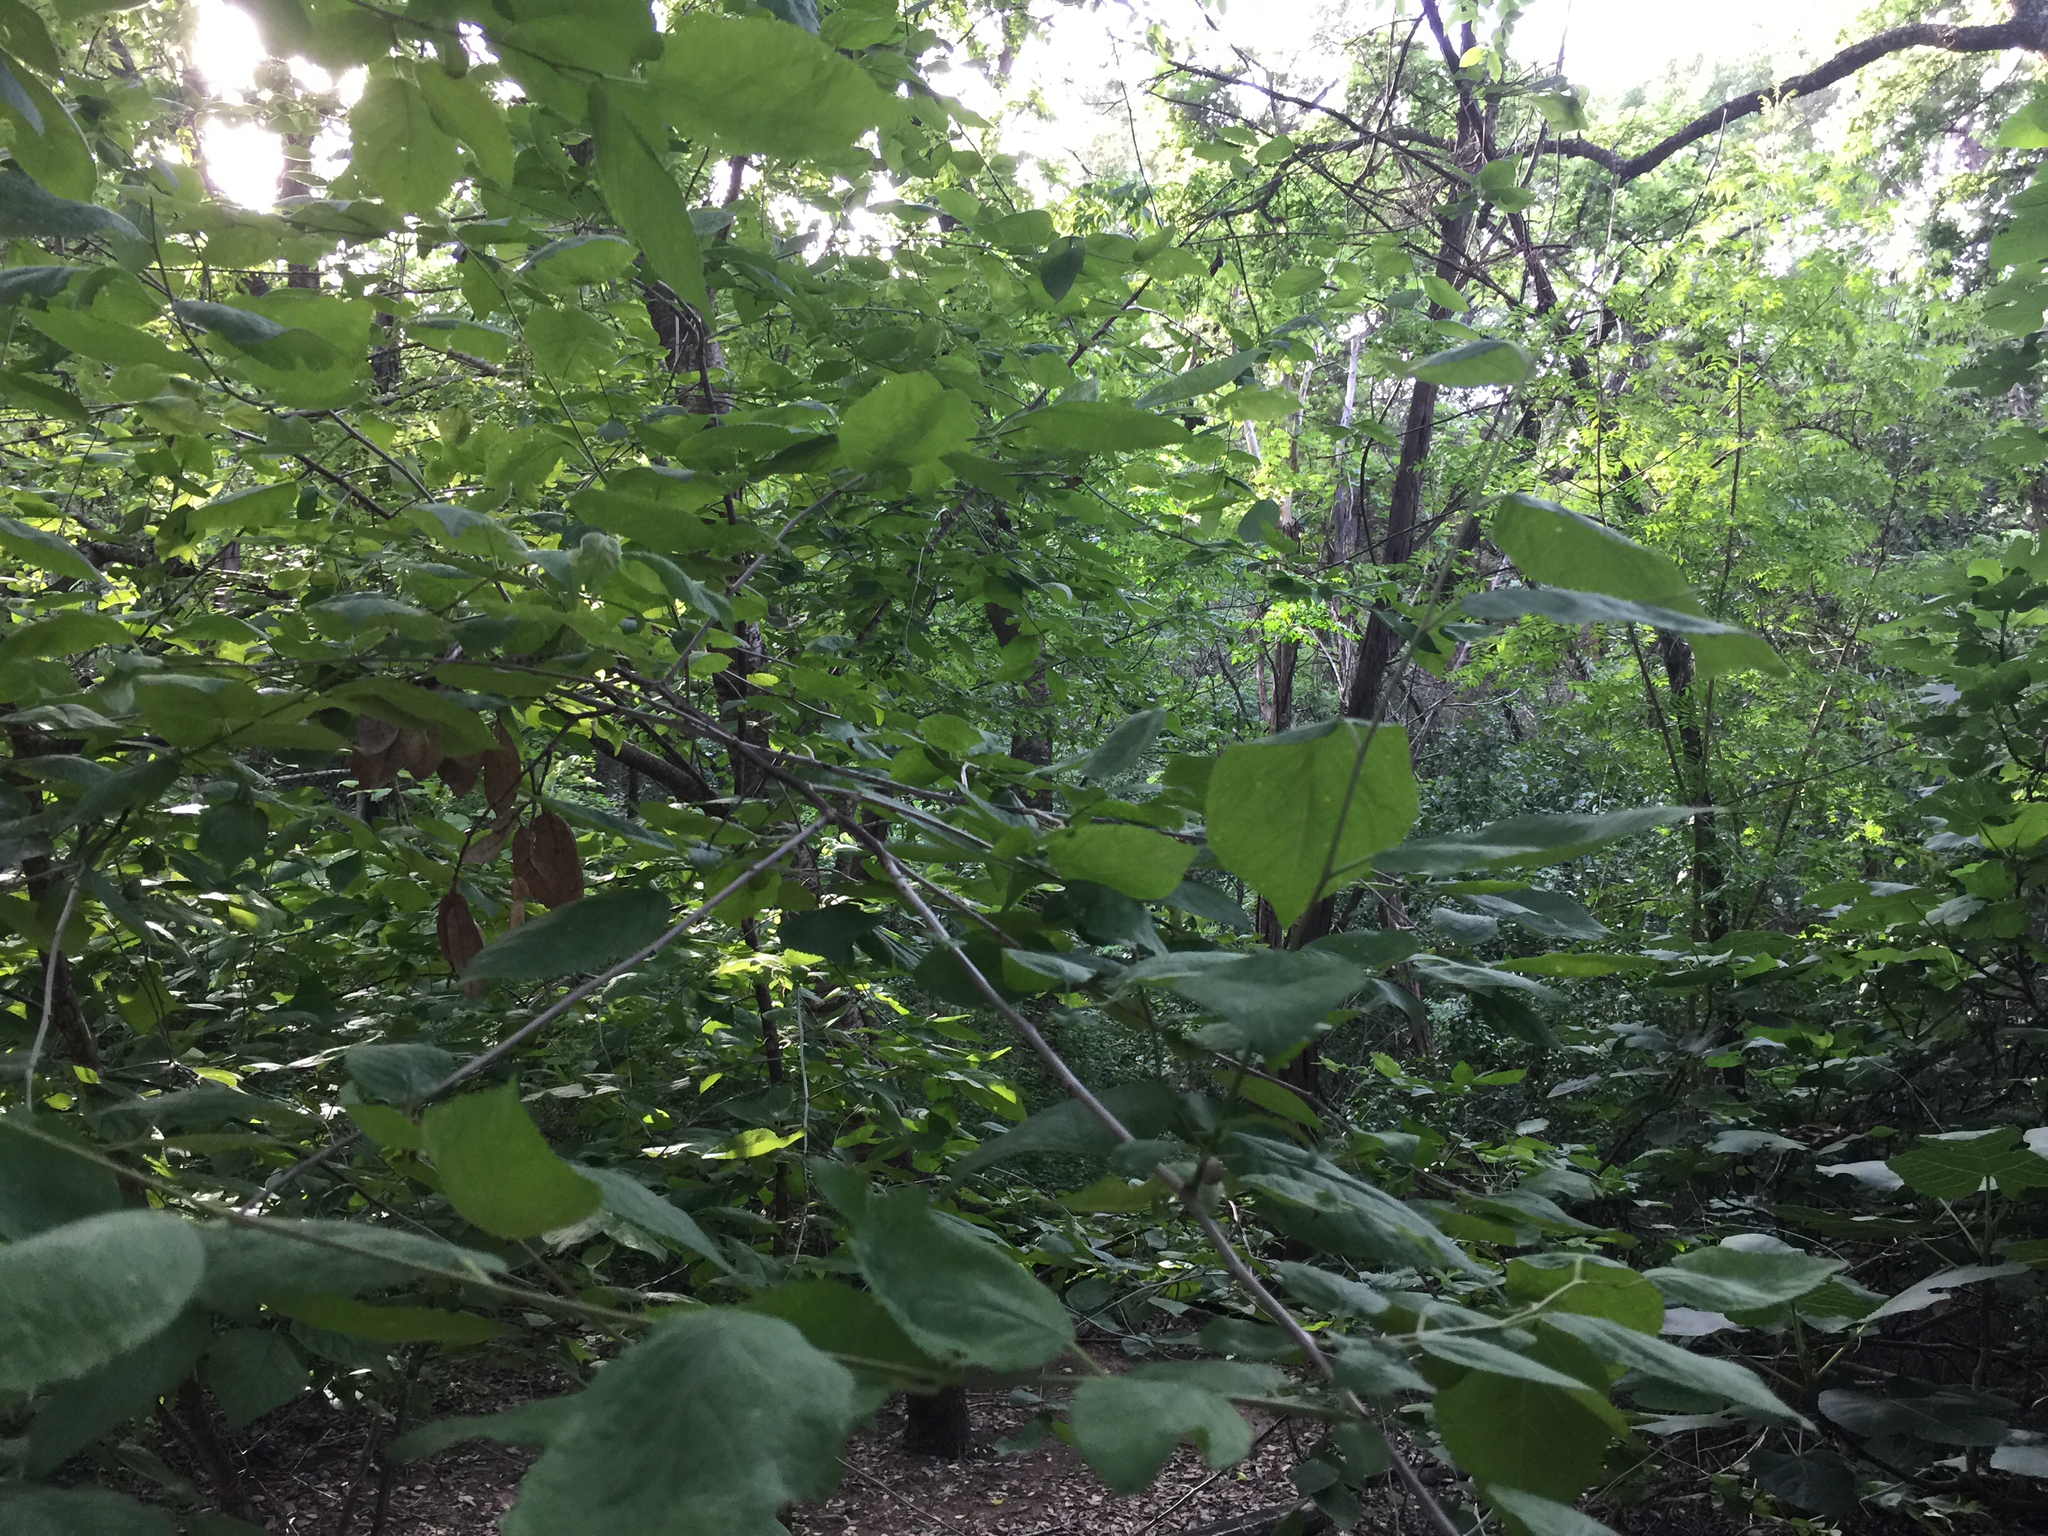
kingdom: Plantae
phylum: Tracheophyta
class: Magnoliopsida
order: Rosales
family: Rosaceae
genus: Prunus
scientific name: Prunus mexicana
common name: Mexican plum
